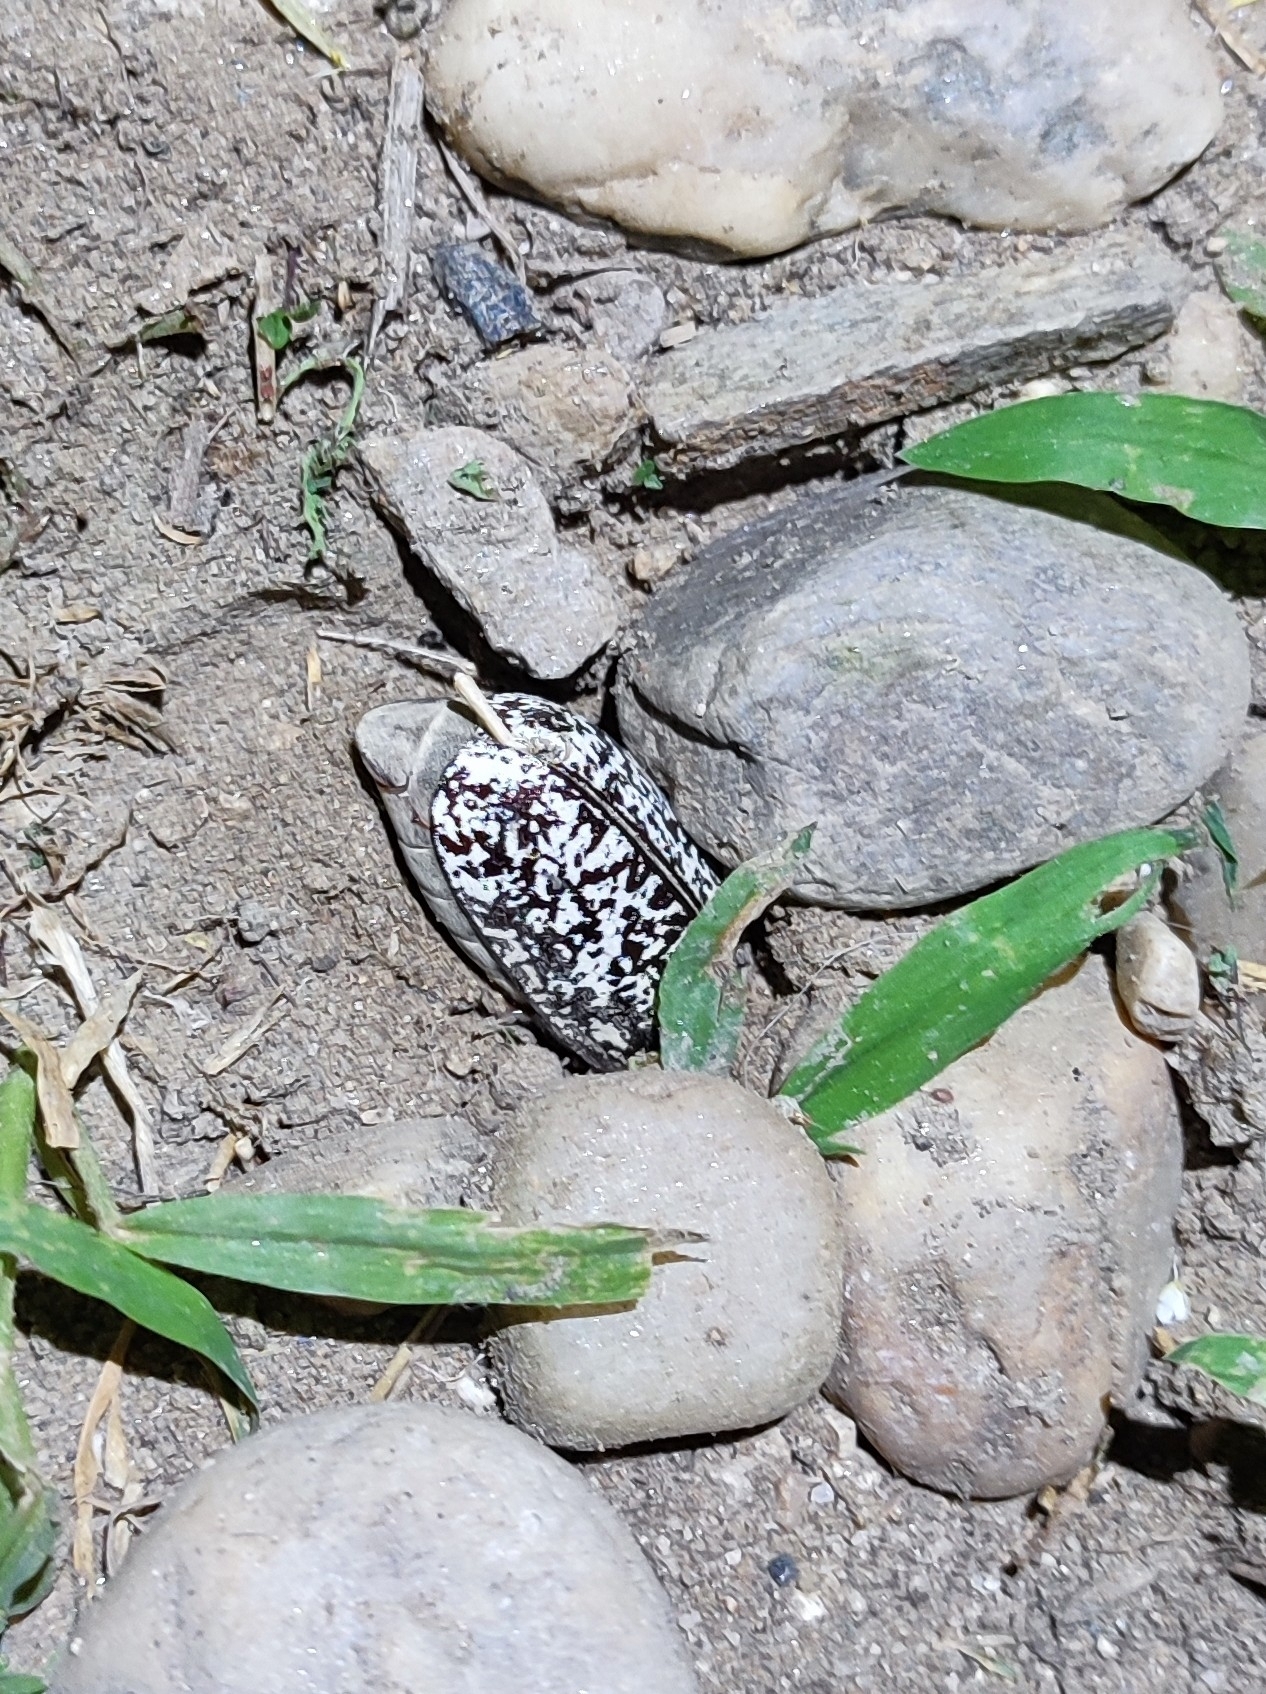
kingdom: Animalia
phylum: Arthropoda
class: Insecta
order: Coleoptera
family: Scarabaeidae
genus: Polyphylla
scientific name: Polyphylla fullo
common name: Pine chafer
